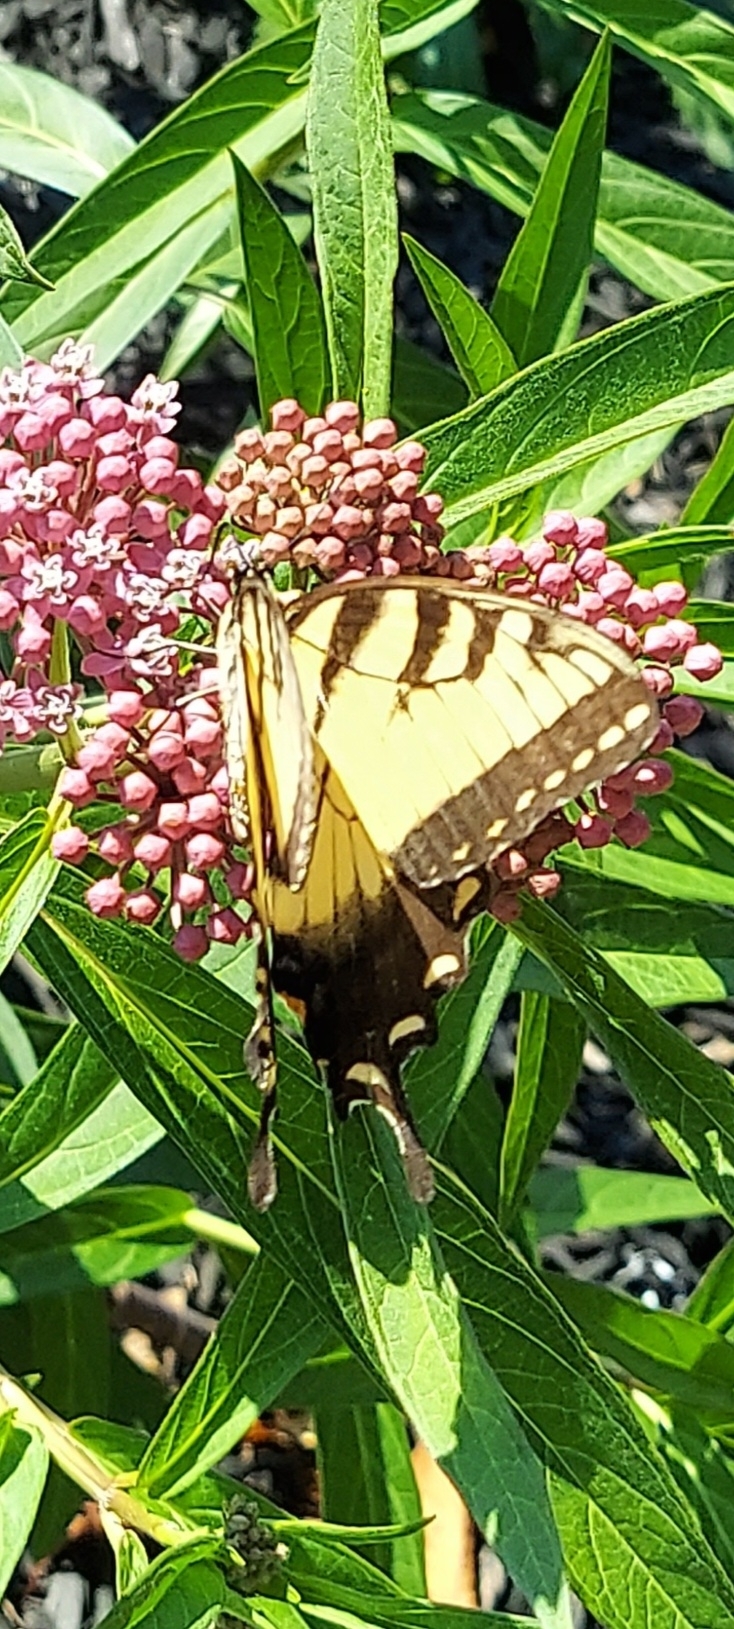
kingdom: Animalia
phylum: Arthropoda
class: Insecta
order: Lepidoptera
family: Papilionidae
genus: Papilio
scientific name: Papilio glaucus
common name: Tiger swallowtail
